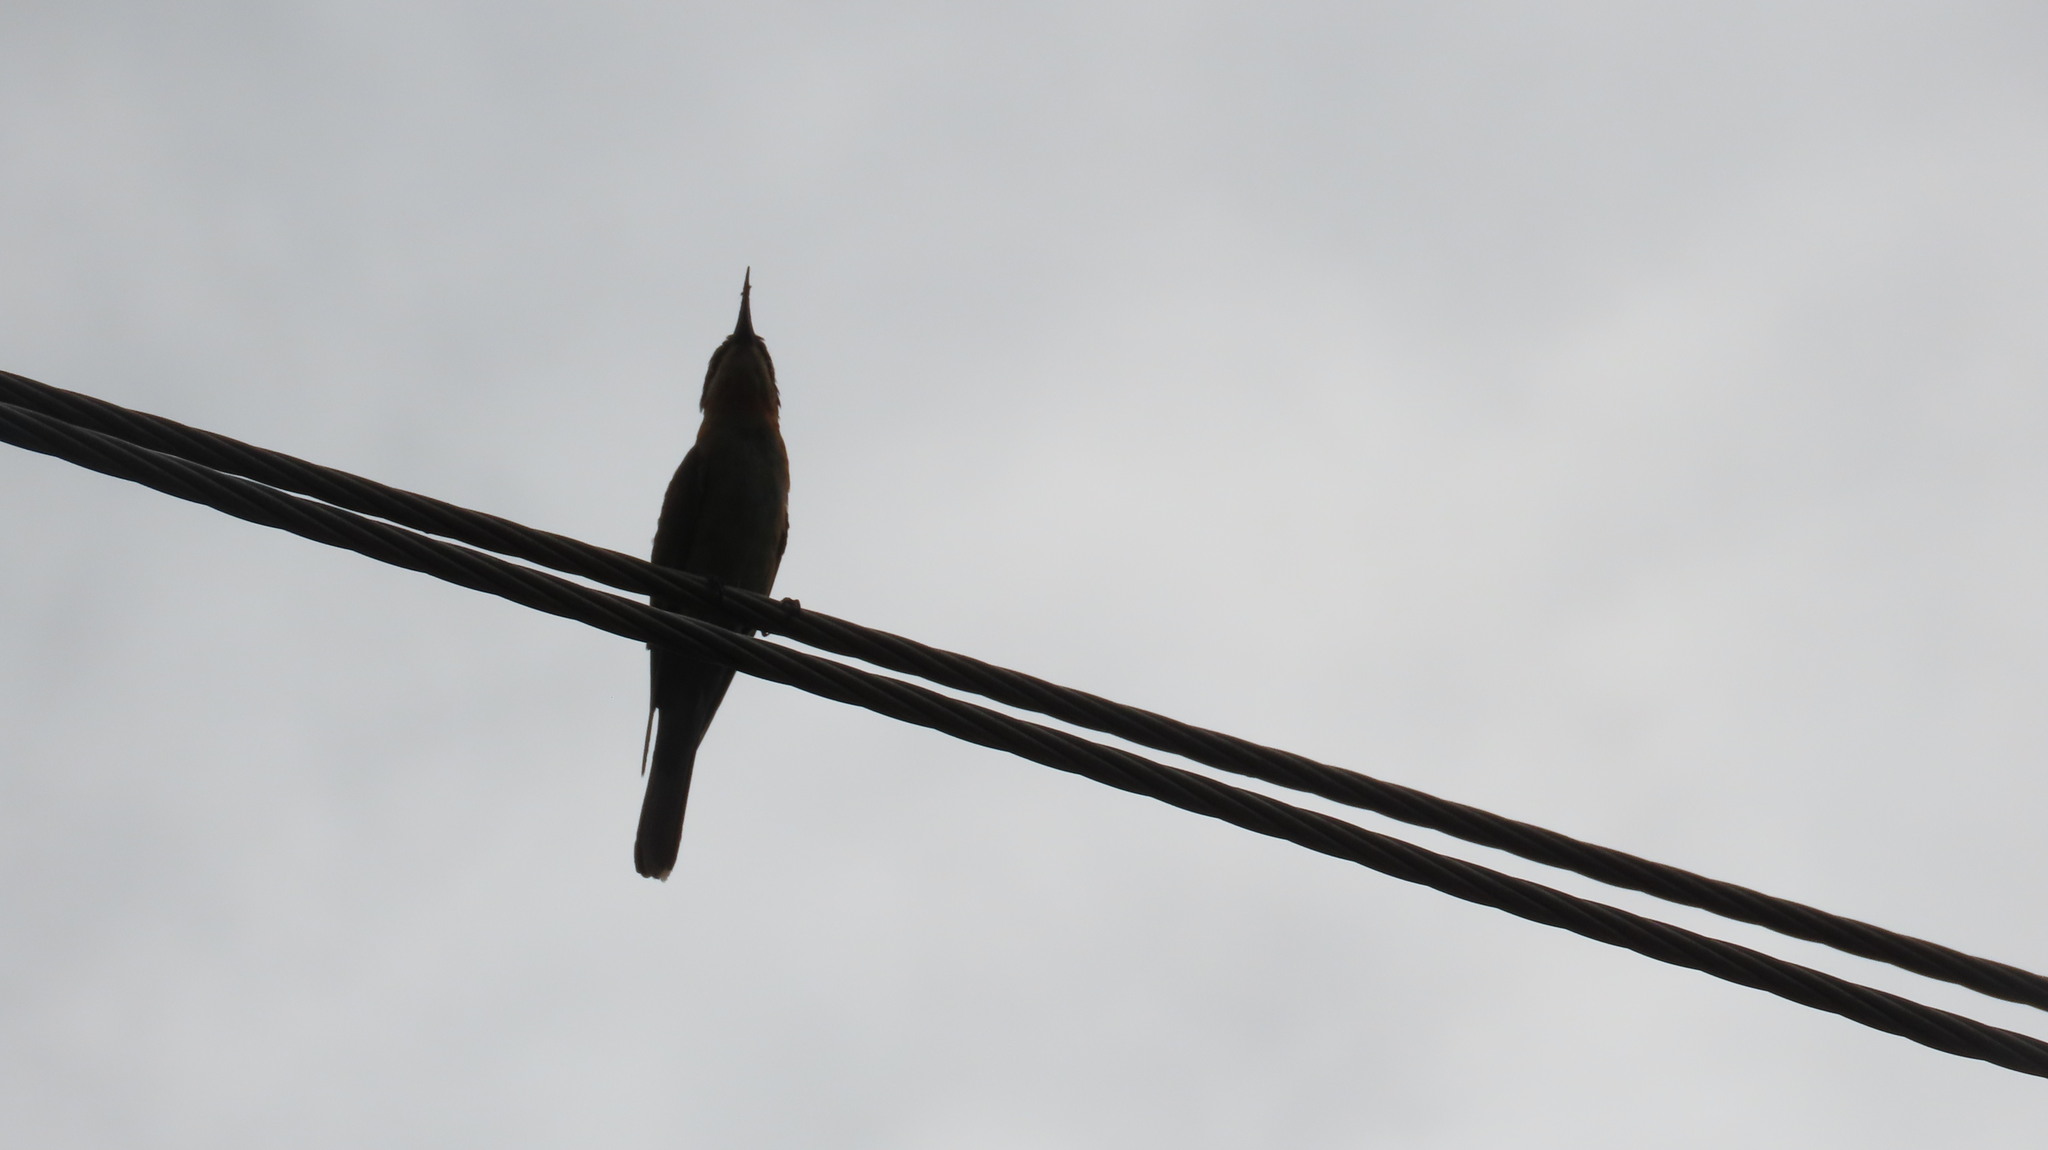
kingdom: Animalia
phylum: Chordata
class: Aves
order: Coraciiformes
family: Meropidae
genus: Merops
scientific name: Merops philippinus
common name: Blue-tailed bee-eater
